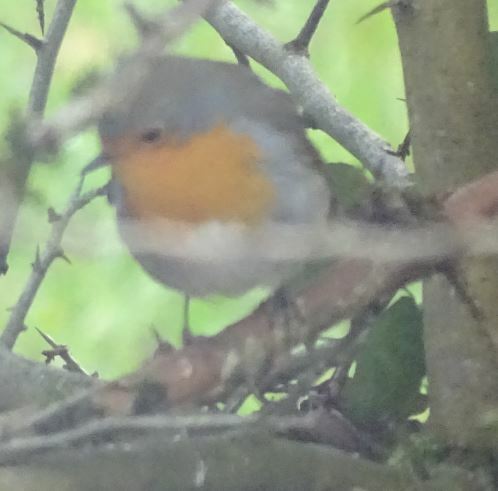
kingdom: Animalia
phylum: Chordata
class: Aves
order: Passeriformes
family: Muscicapidae
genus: Erithacus
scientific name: Erithacus rubecula
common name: European robin
